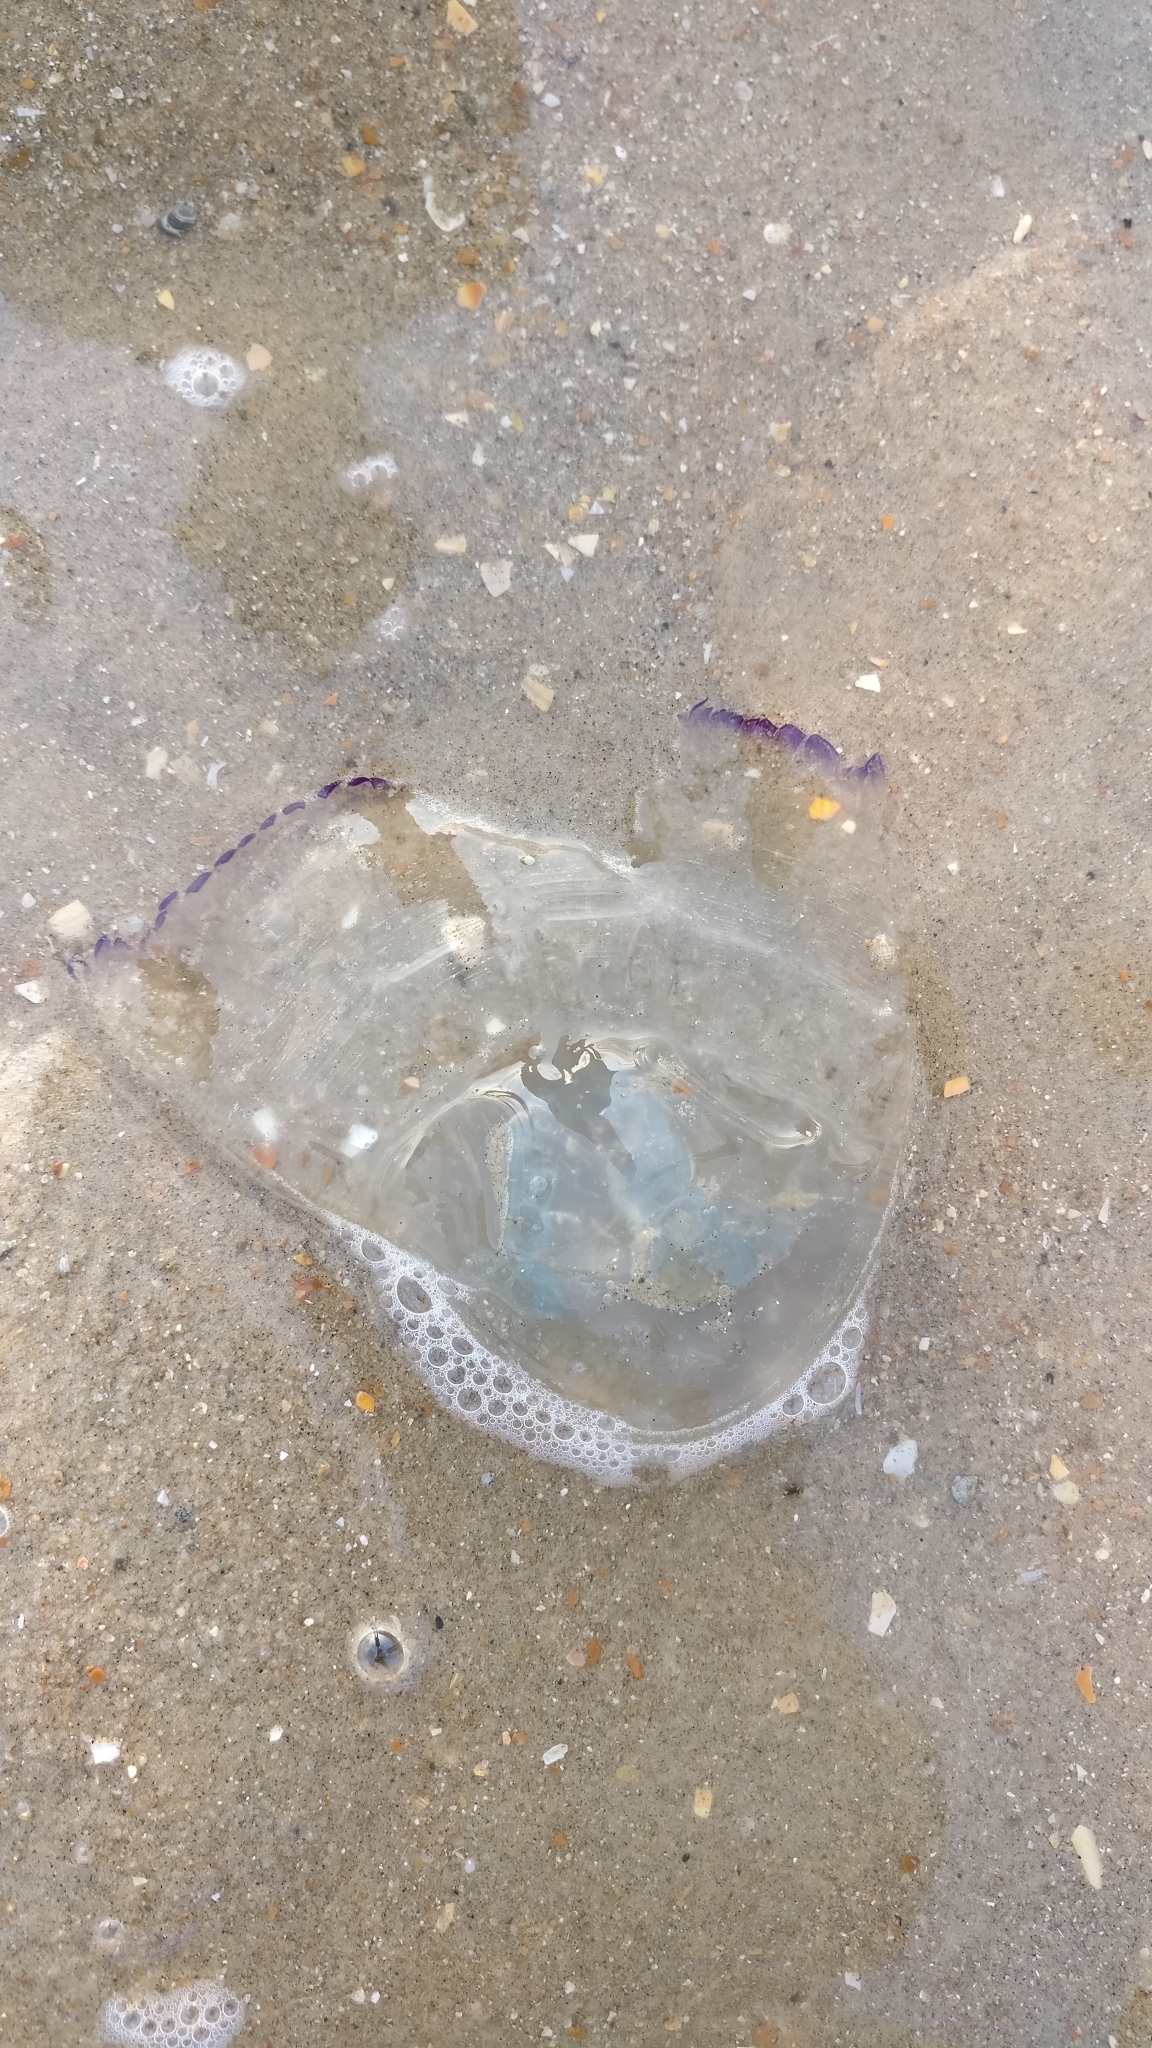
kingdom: Animalia
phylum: Cnidaria
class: Scyphozoa
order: Rhizostomeae
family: Rhizostomatidae
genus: Rhizostoma
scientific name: Rhizostoma octopus
